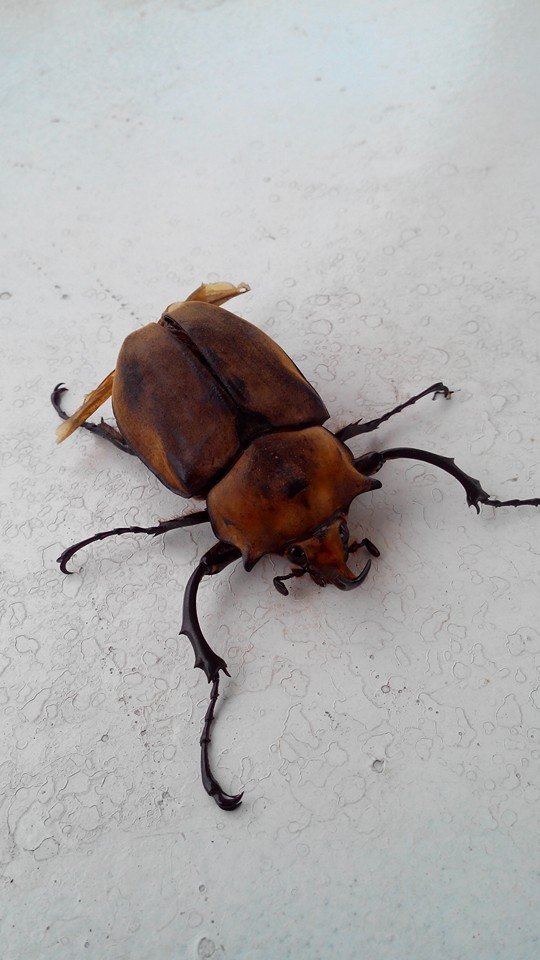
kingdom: Animalia
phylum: Arthropoda
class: Insecta
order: Coleoptera
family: Scarabaeidae
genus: Megasoma
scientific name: Megasoma elephas
